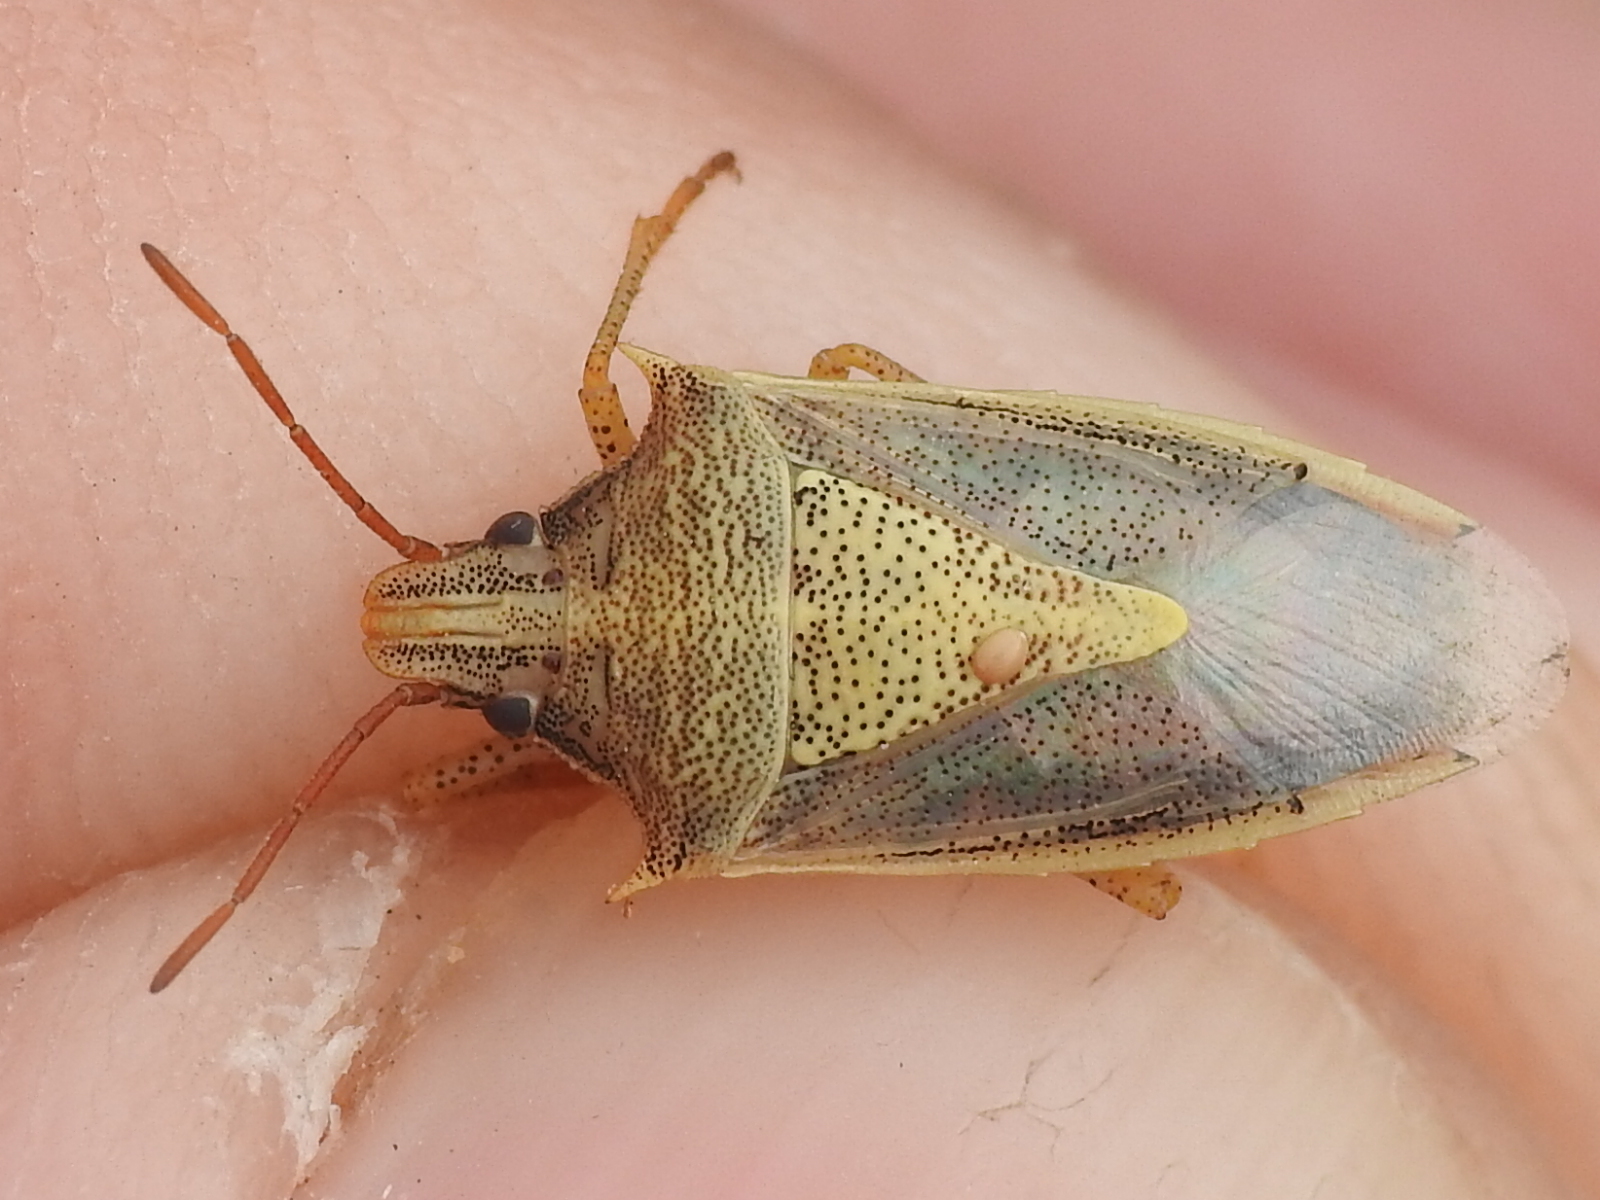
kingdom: Animalia
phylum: Arthropoda
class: Insecta
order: Hemiptera
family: Pentatomidae
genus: Oebalus
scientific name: Oebalus pugnax
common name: Rice stink bug
